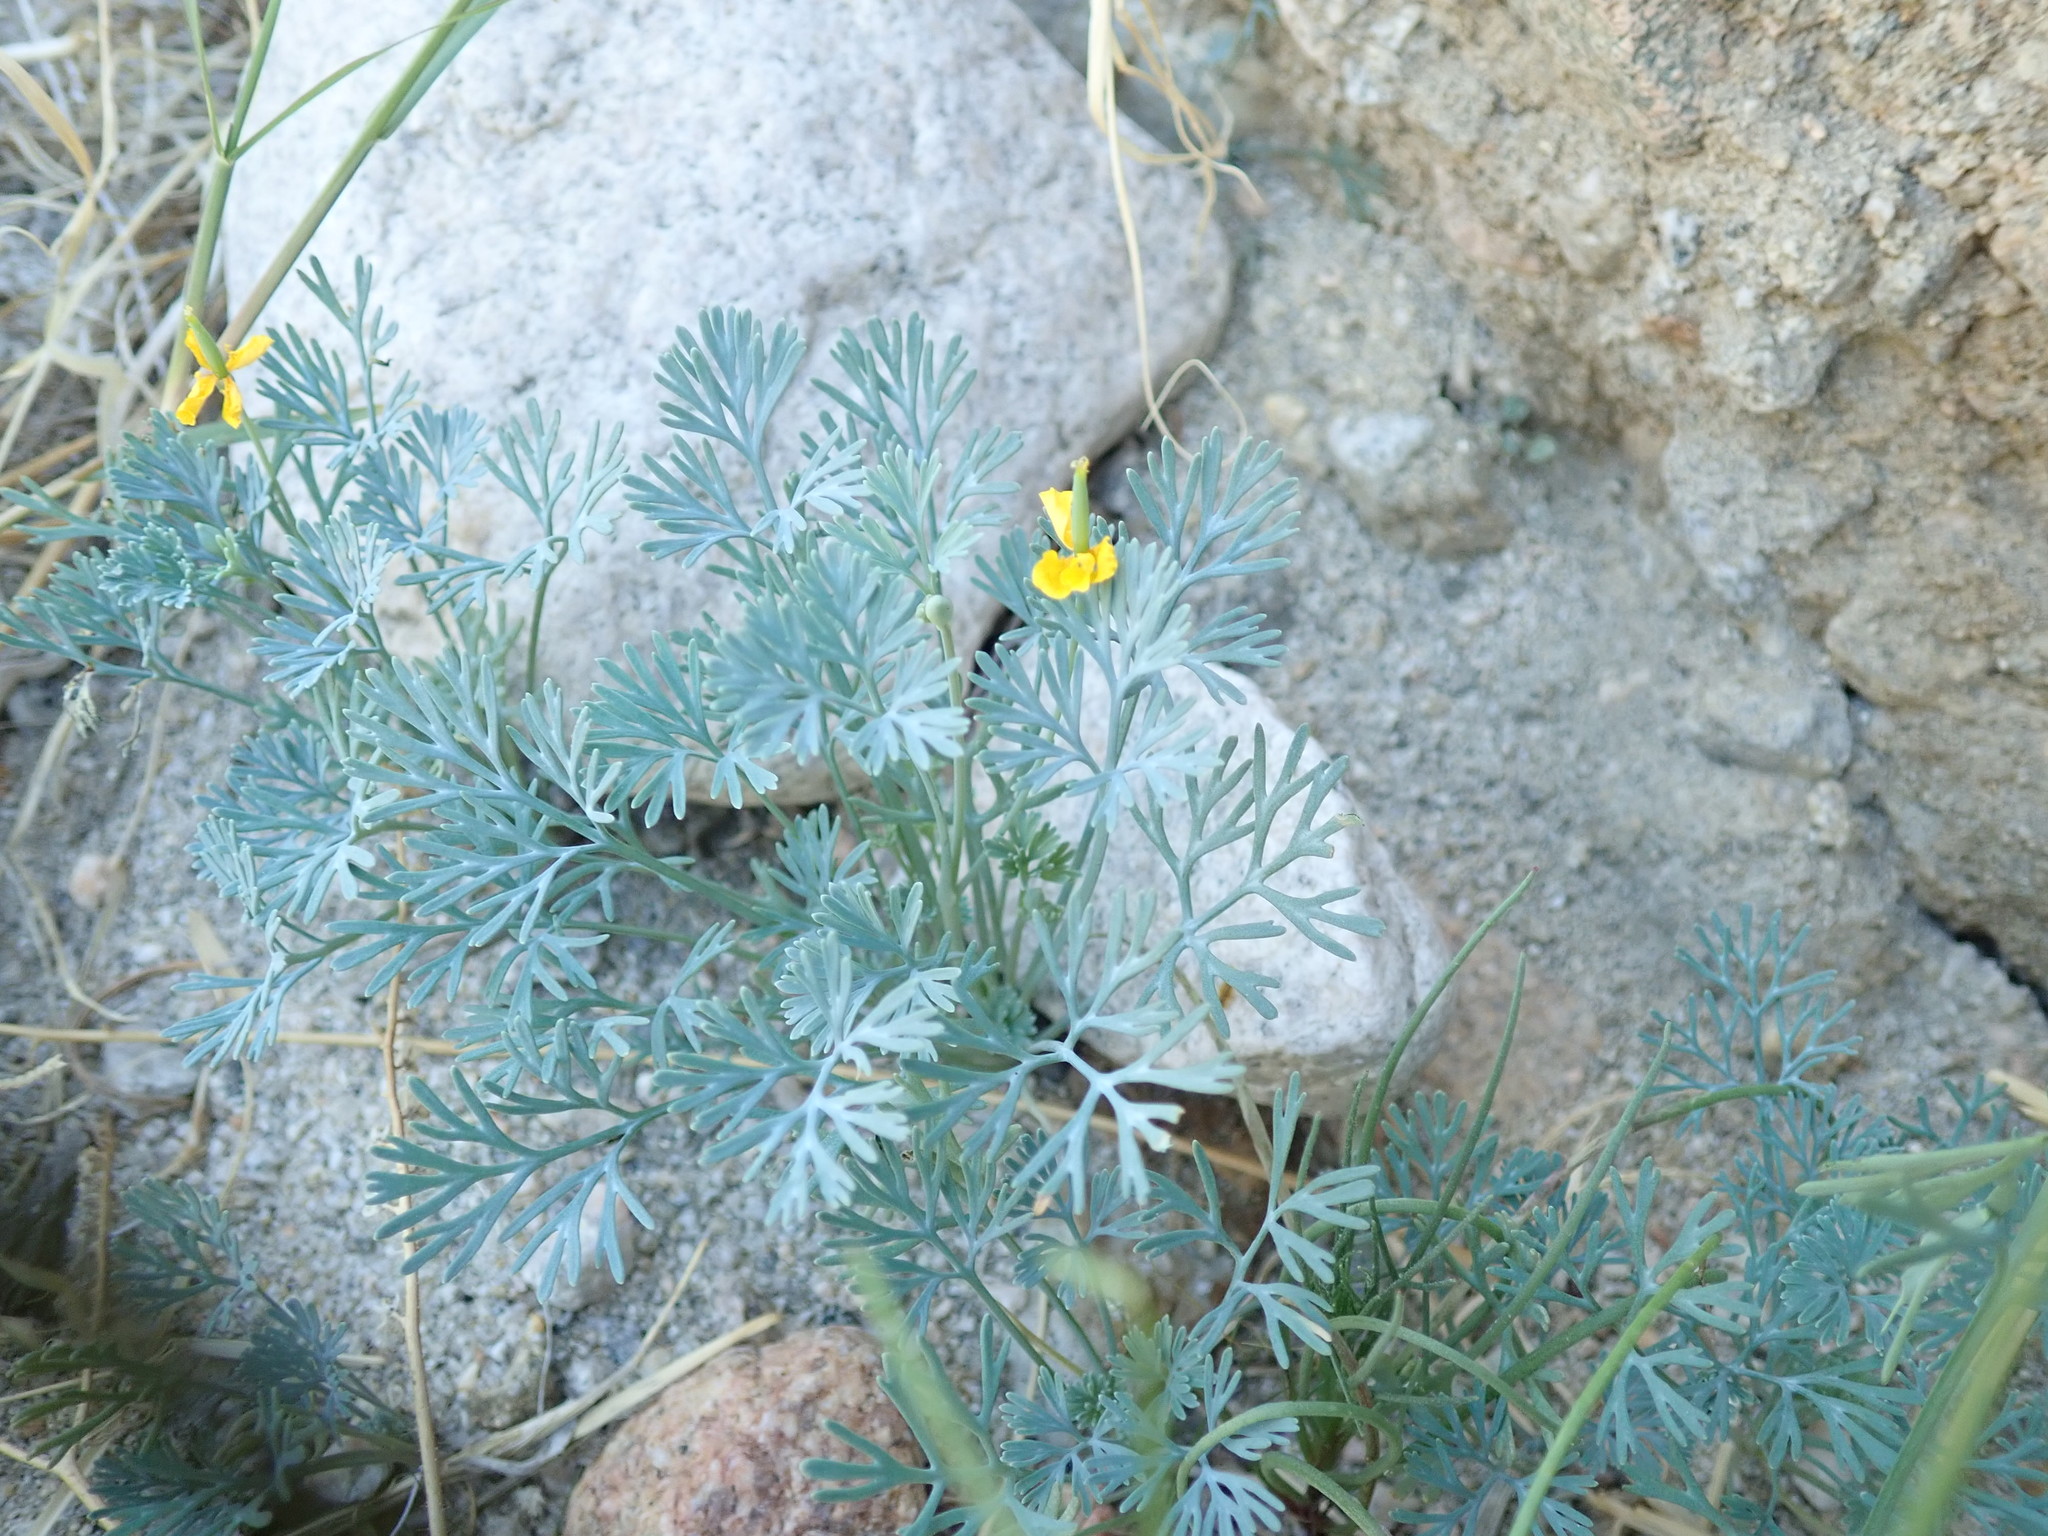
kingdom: Plantae
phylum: Tracheophyta
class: Magnoliopsida
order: Ranunculales
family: Papaveraceae
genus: Eschscholzia
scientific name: Eschscholzia minutiflora
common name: Small-flower california-poppy
